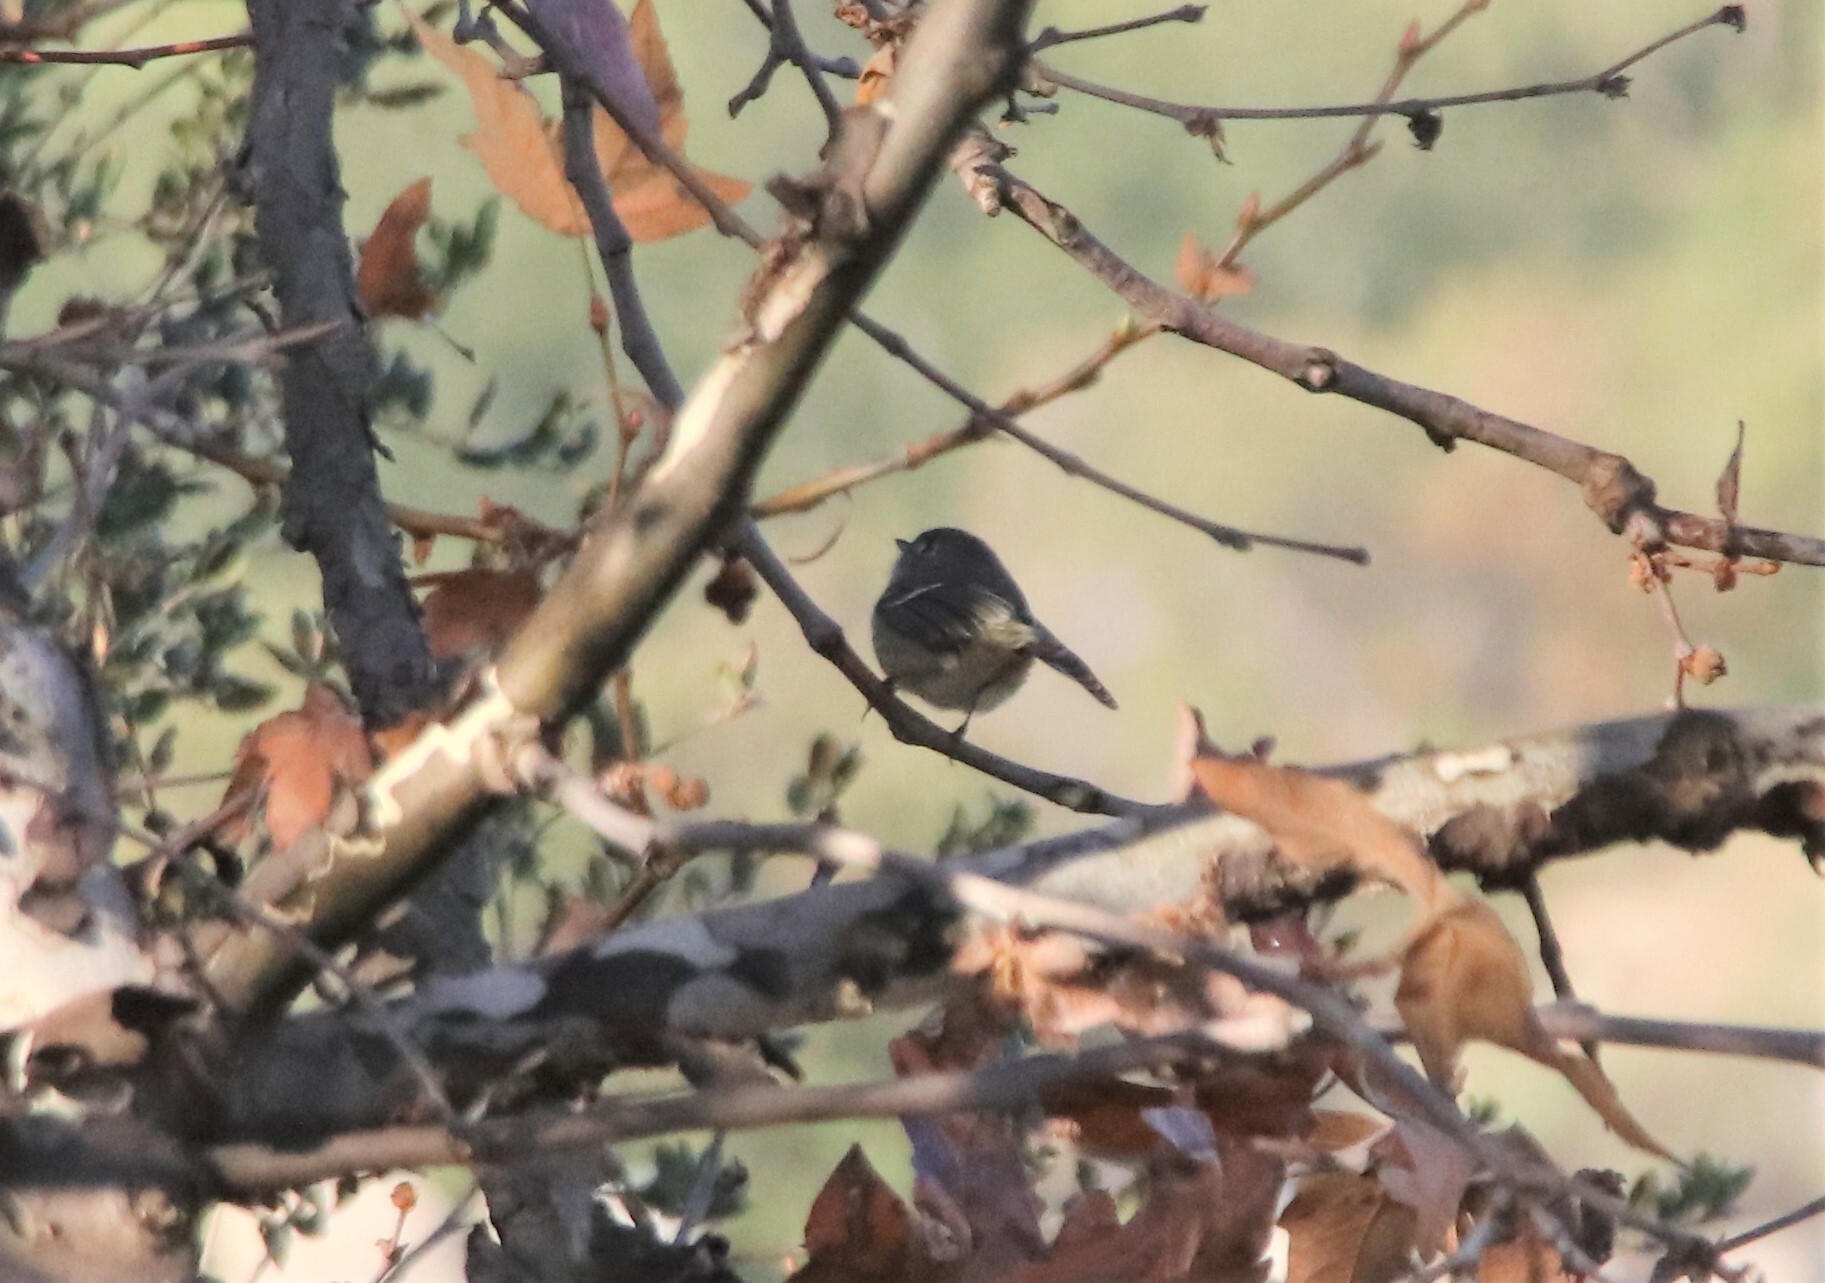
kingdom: Animalia
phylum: Chordata
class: Aves
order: Passeriformes
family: Regulidae
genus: Regulus
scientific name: Regulus calendula
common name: Ruby-crowned kinglet
